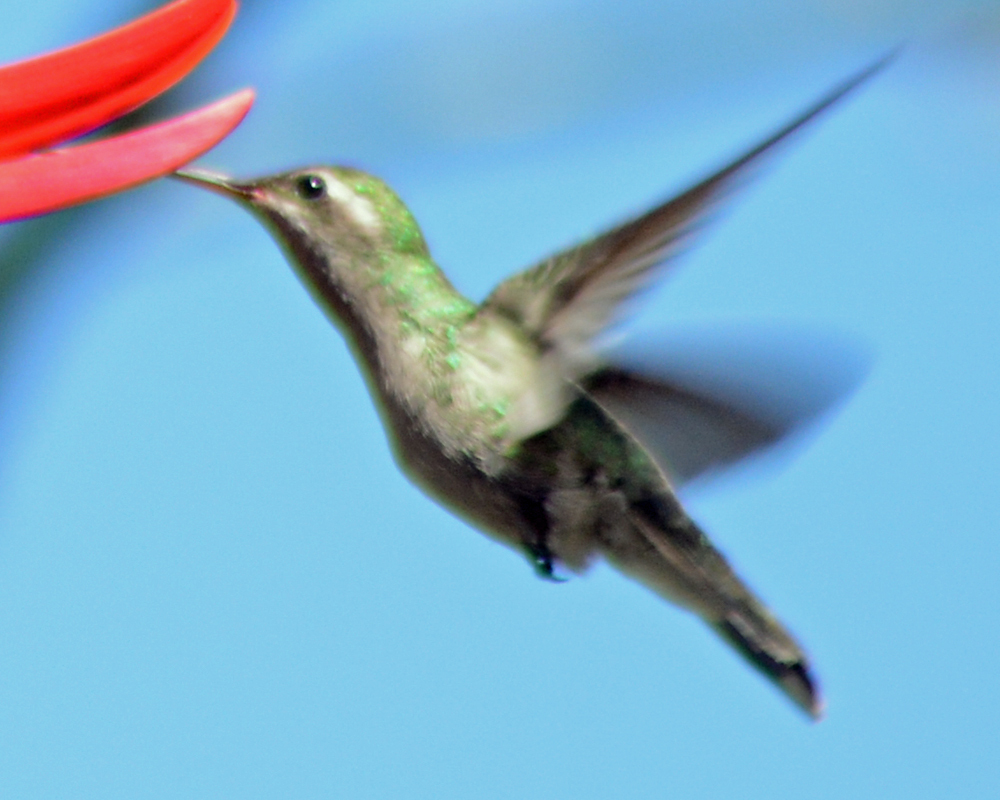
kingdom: Animalia
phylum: Chordata
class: Aves
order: Apodiformes
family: Trochilidae
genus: Cynanthus
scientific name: Cynanthus latirostris
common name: Broad-billed hummingbird
